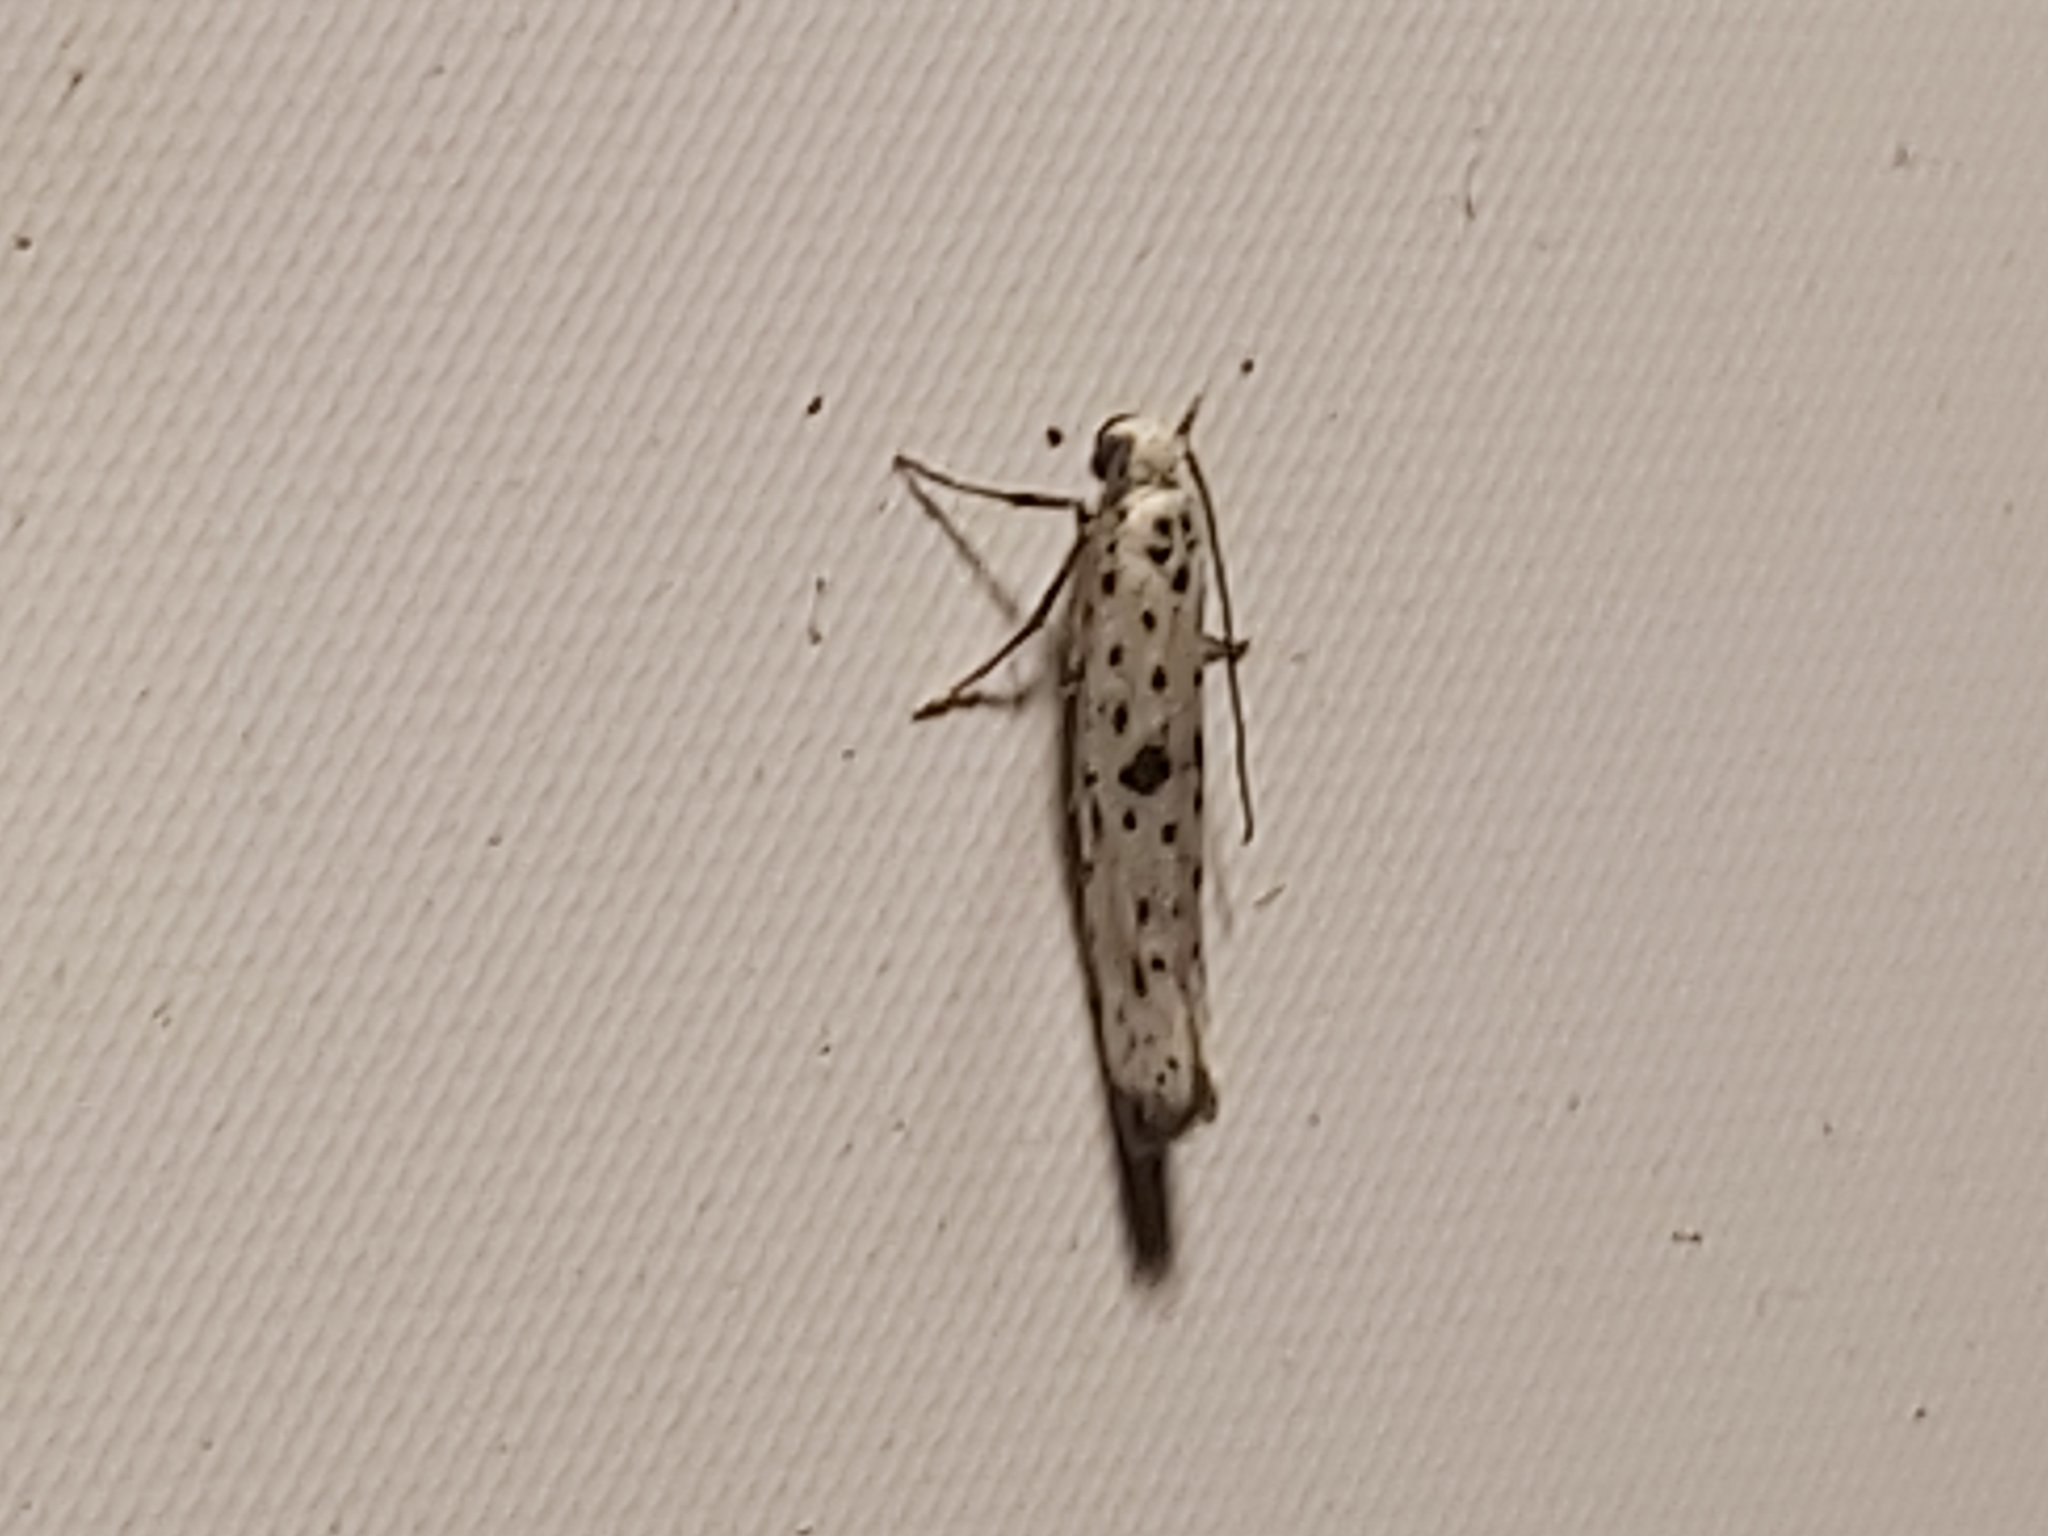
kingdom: Animalia
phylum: Arthropoda
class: Insecta
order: Lepidoptera
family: Yponomeutidae
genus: Yponomeuta
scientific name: Yponomeuta plumbella
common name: Black-tipped ermine
